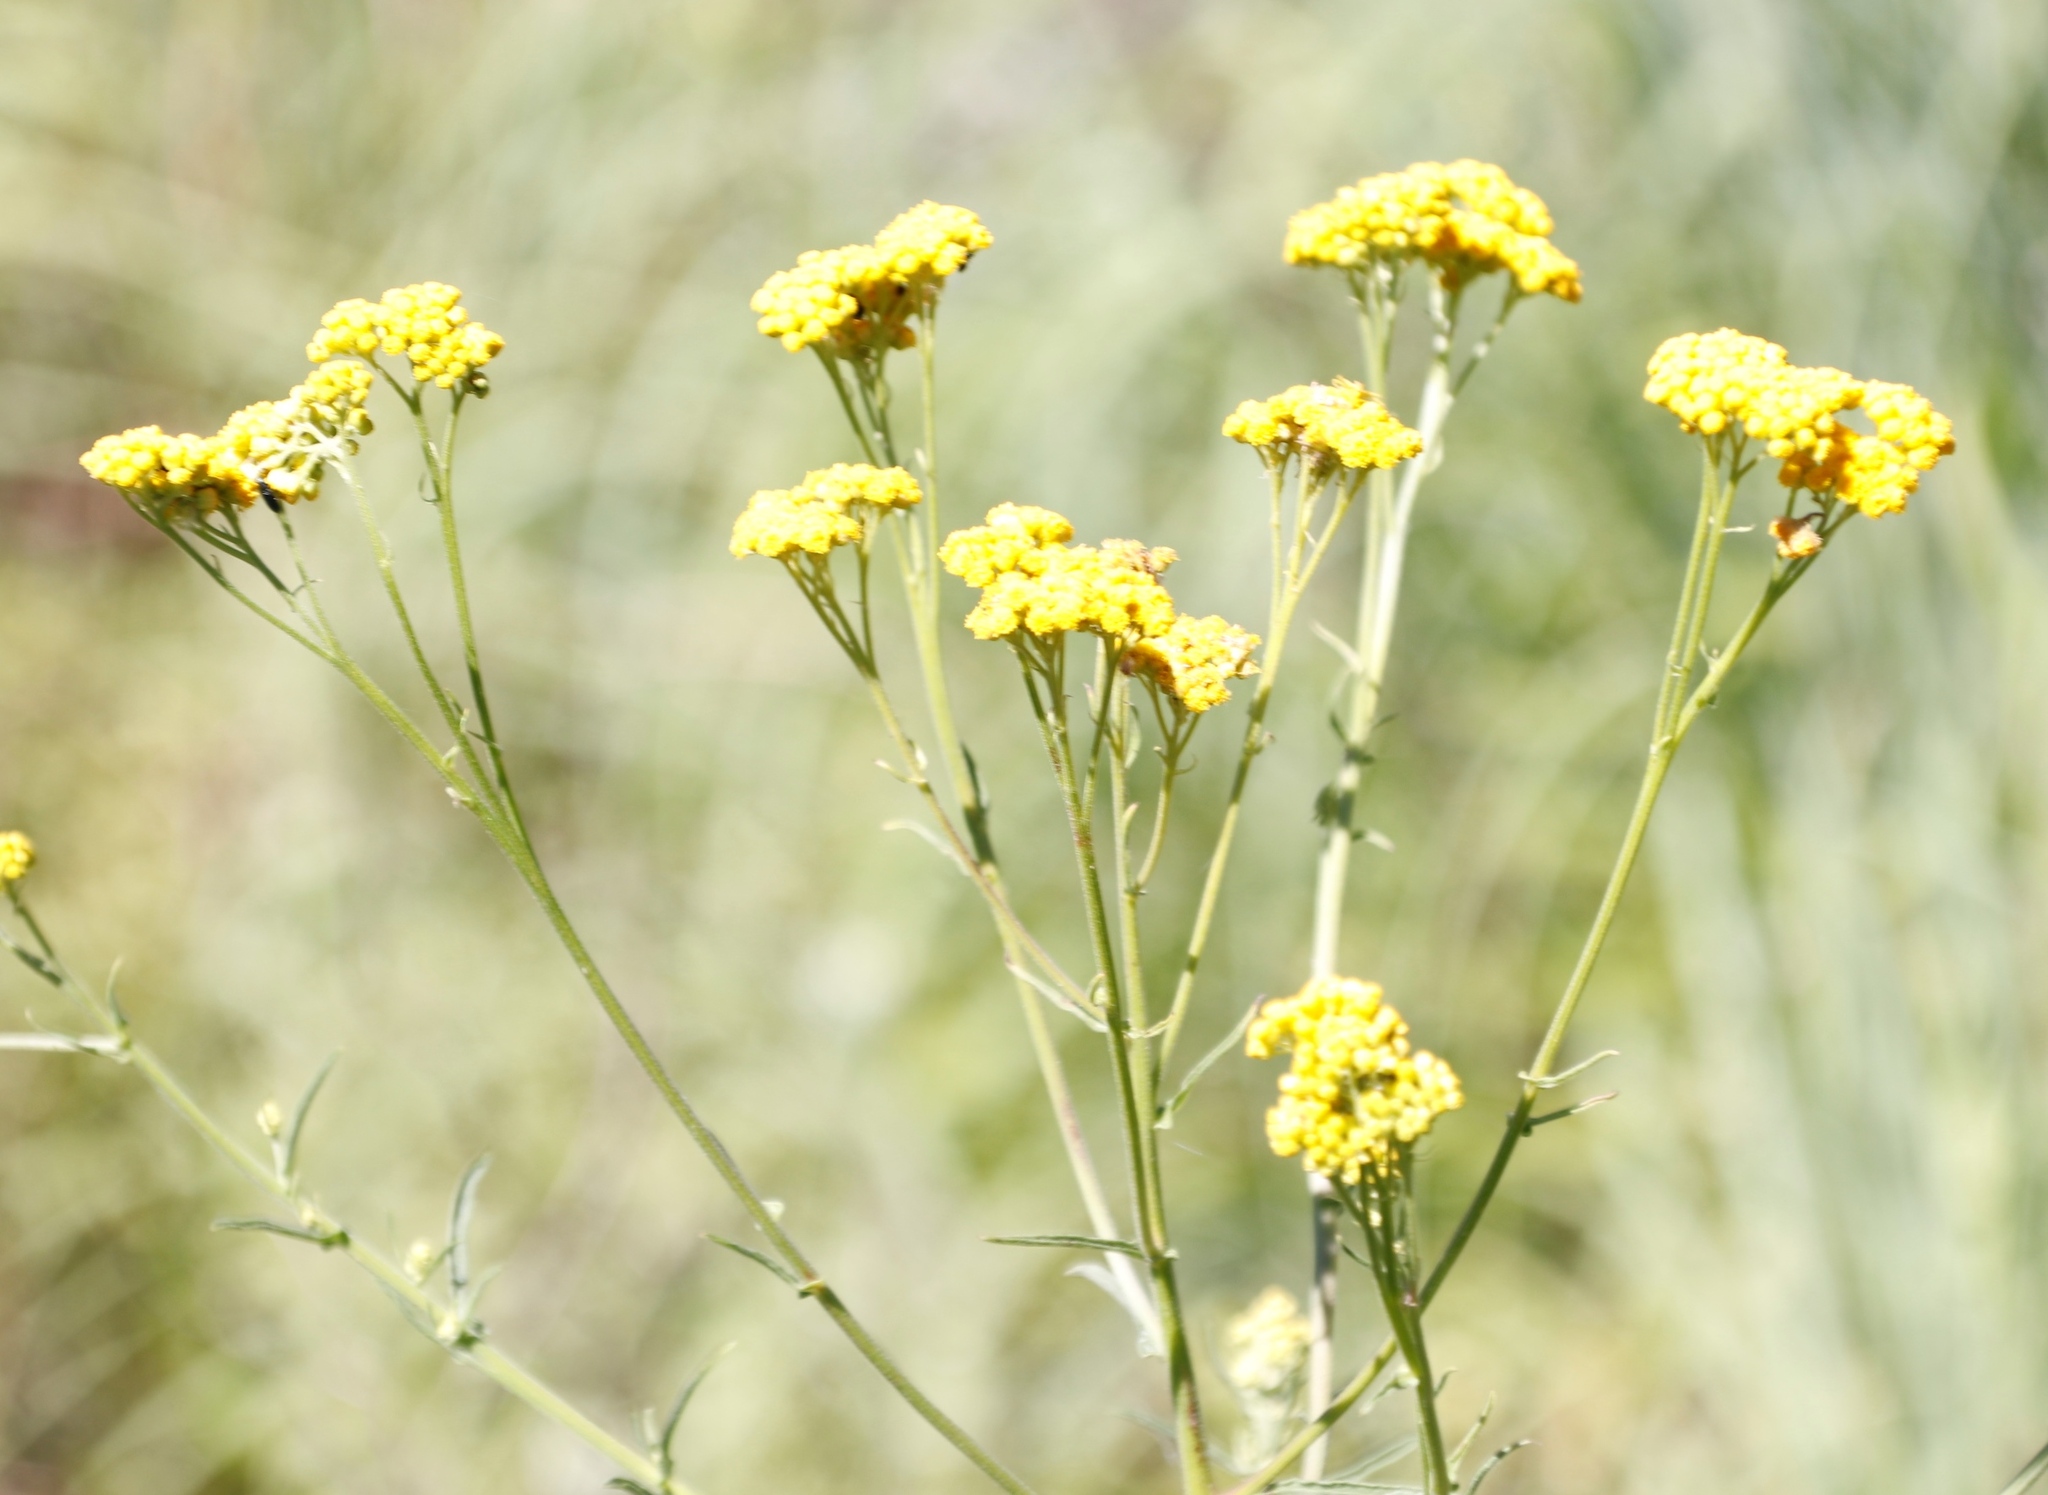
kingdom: Plantae
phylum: Tracheophyta
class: Magnoliopsida
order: Asterales
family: Asteraceae
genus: Nidorella
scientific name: Nidorella auriculata
